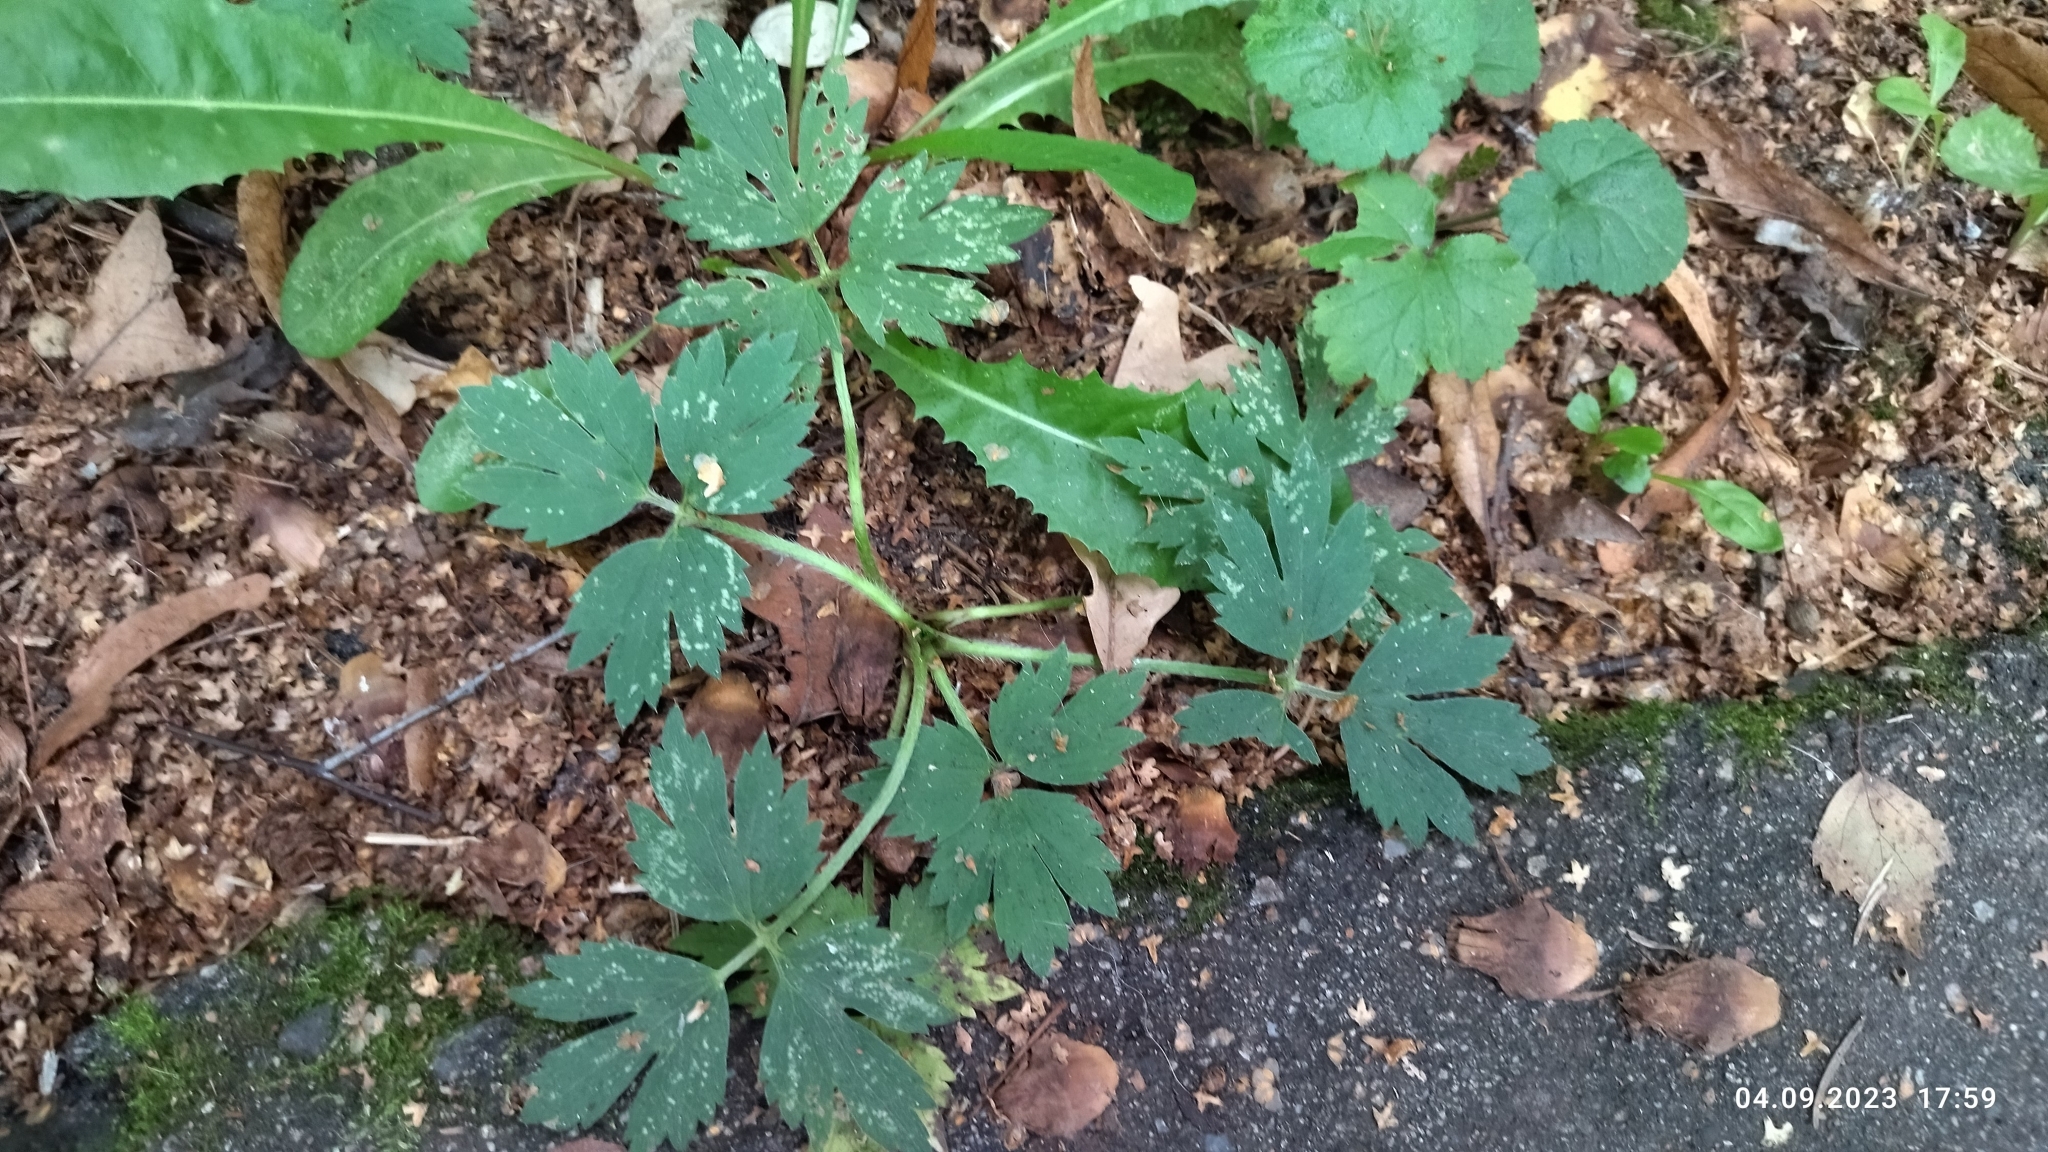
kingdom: Plantae
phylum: Tracheophyta
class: Magnoliopsida
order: Ranunculales
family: Ranunculaceae
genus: Ranunculus
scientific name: Ranunculus repens
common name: Creeping buttercup
